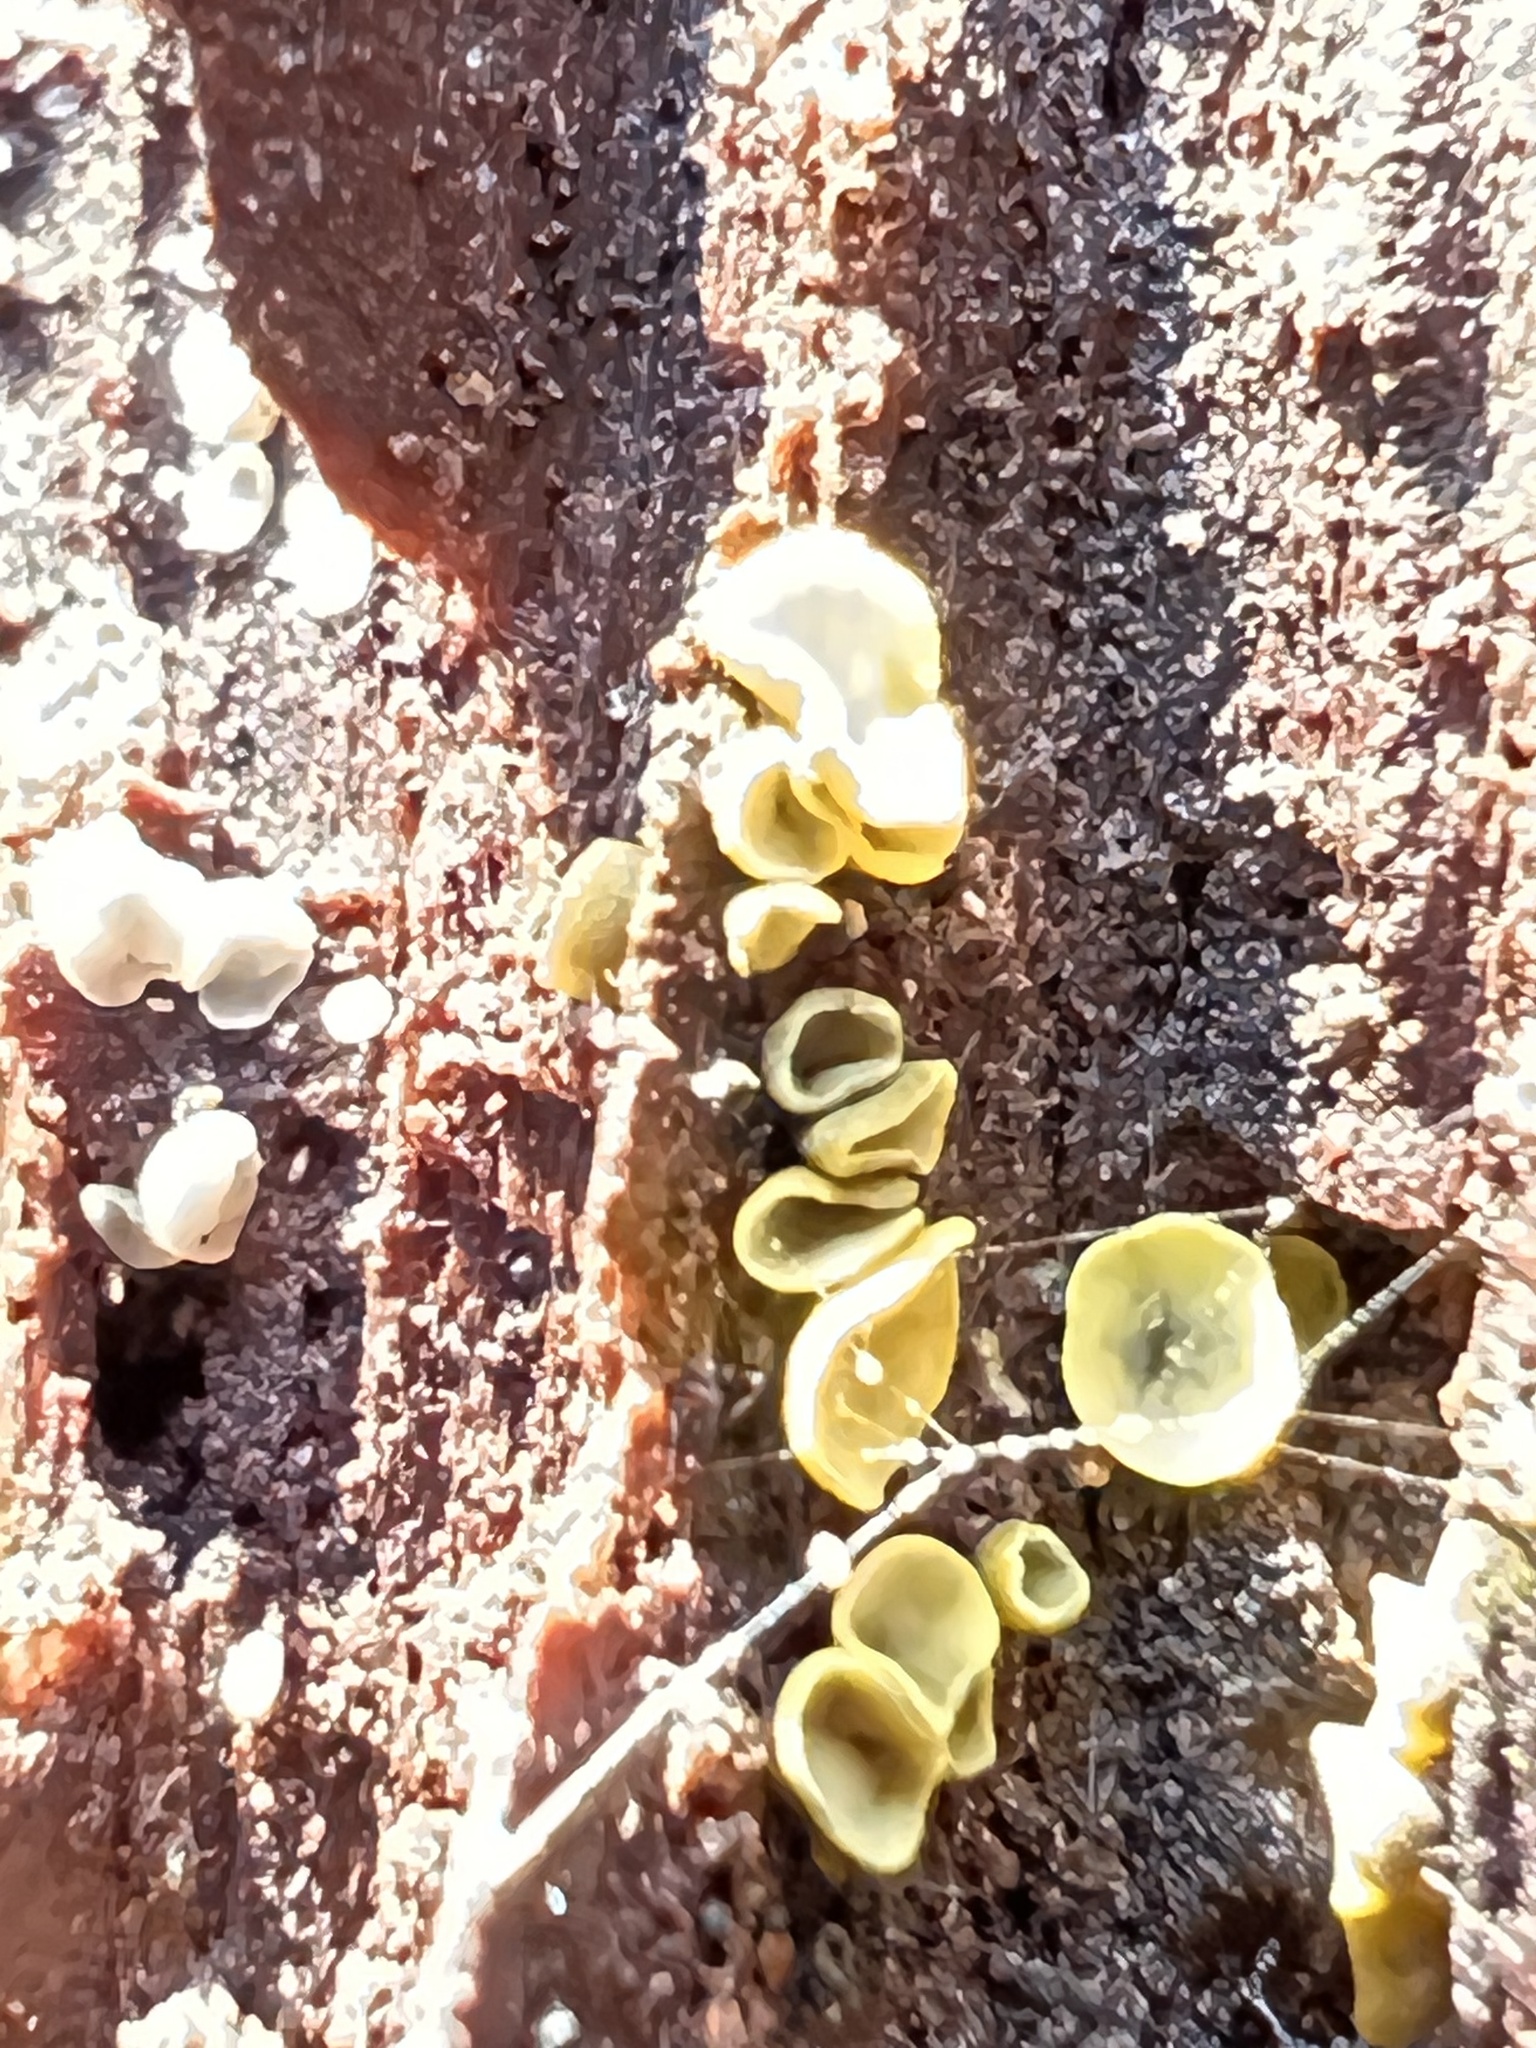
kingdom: Fungi
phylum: Ascomycota
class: Leotiomycetes
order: Helotiales
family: Chlorospleniaceae
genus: Chlorosplenium
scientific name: Chlorosplenium chlora
